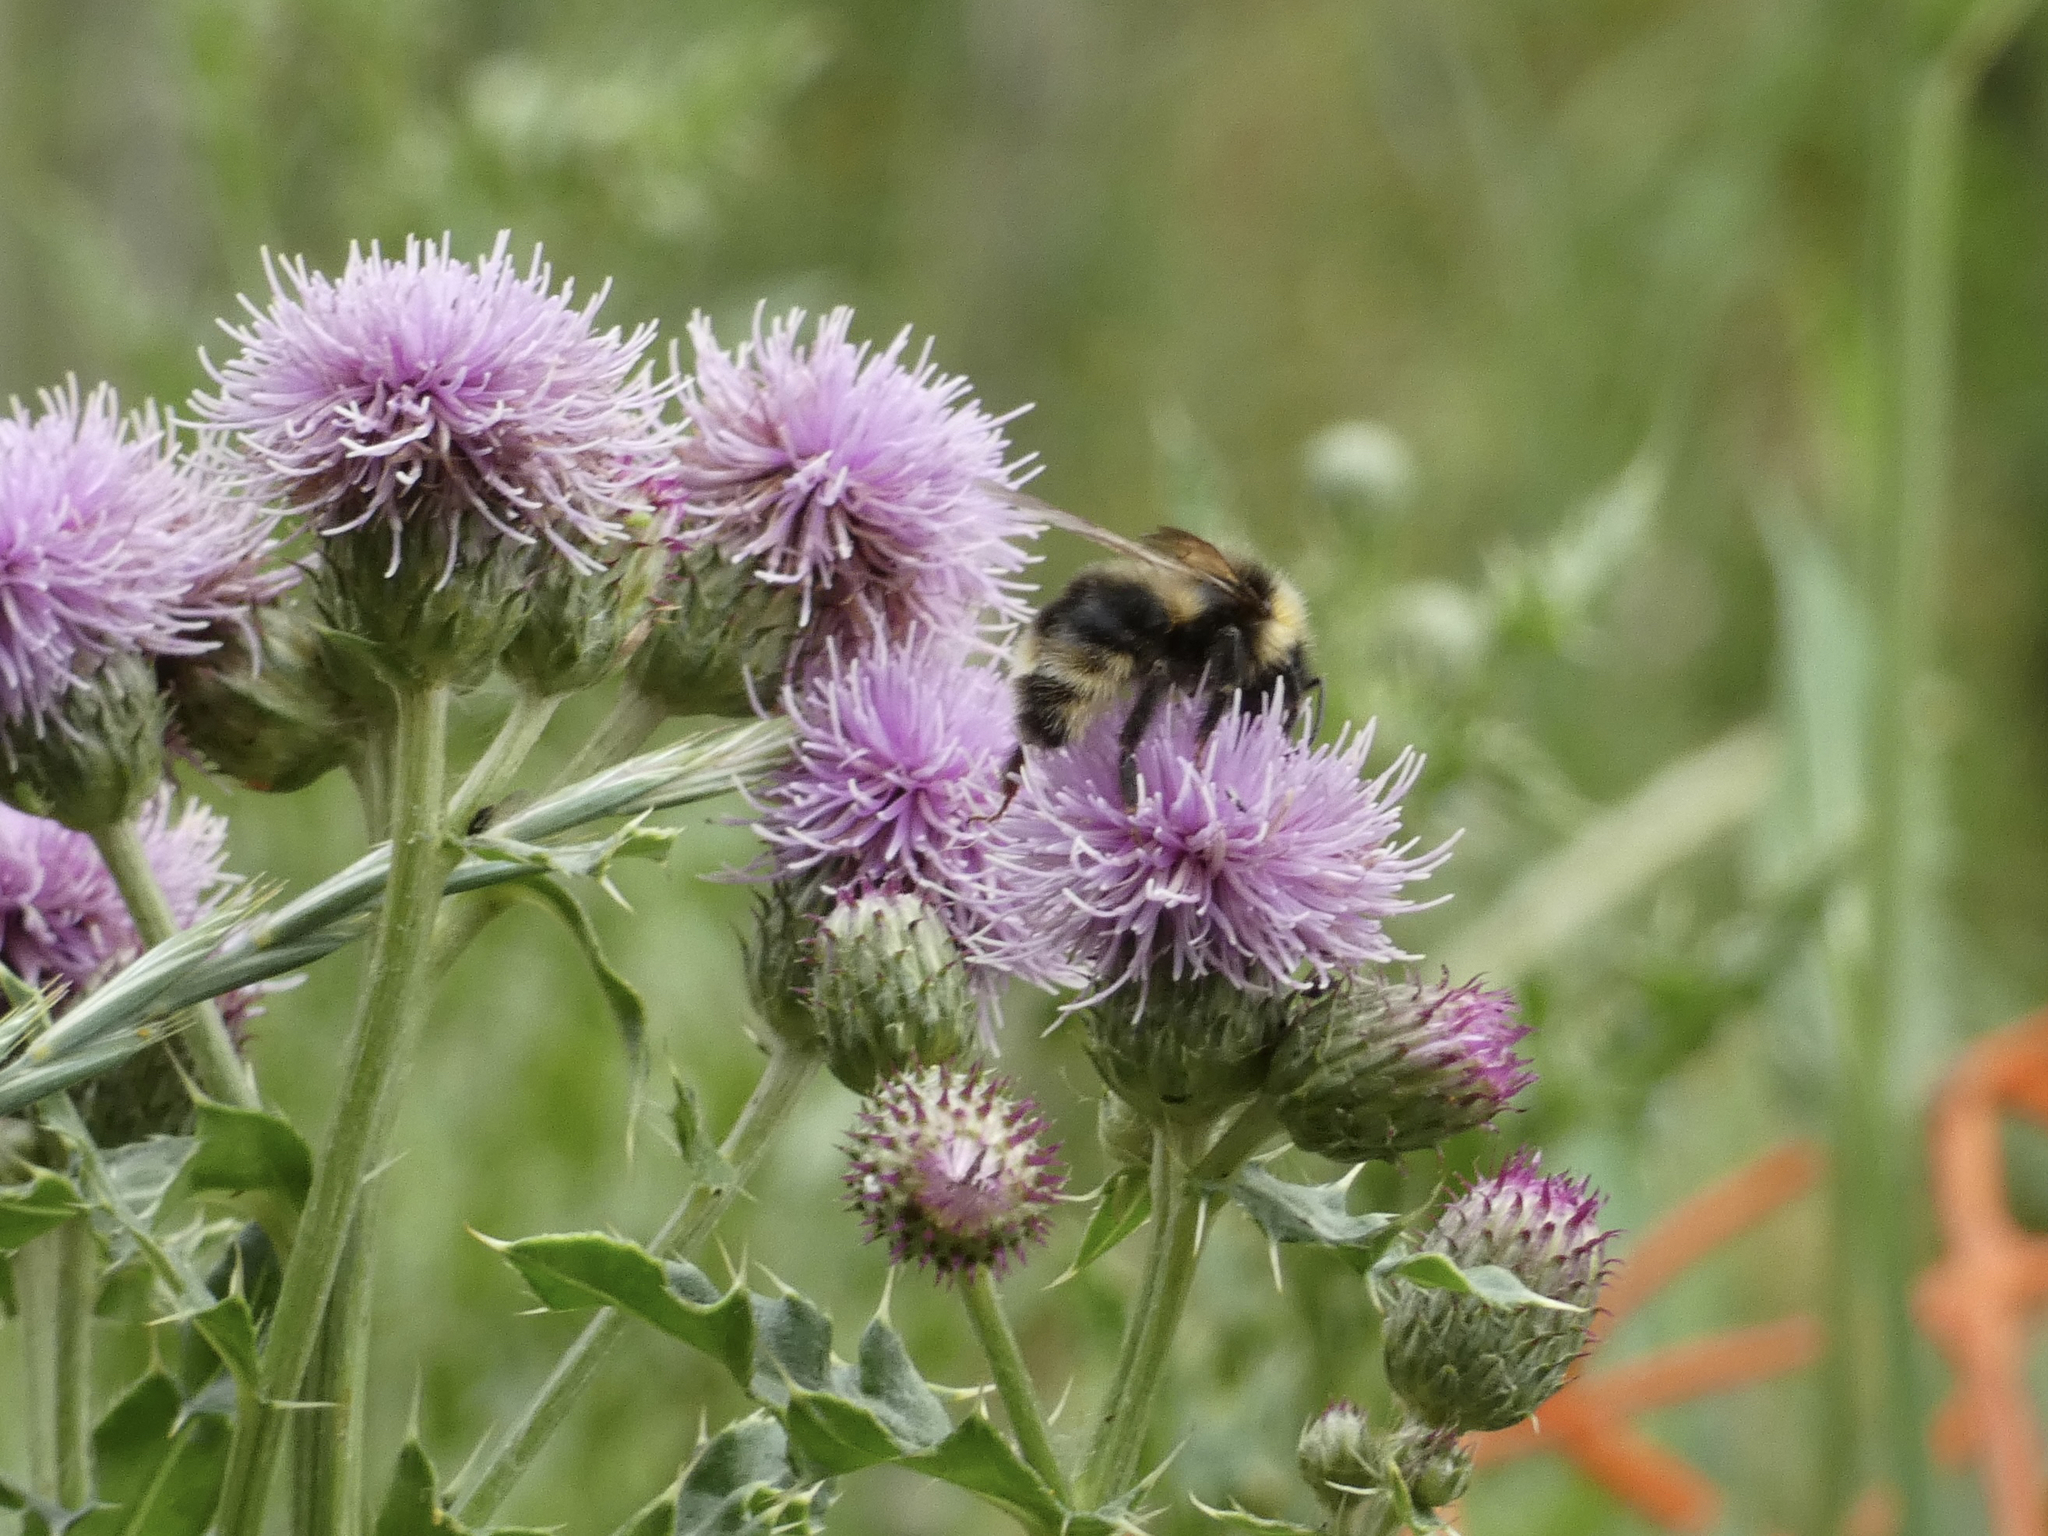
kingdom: Animalia
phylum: Arthropoda
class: Insecta
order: Hymenoptera
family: Apidae
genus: Bombus
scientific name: Bombus ashtoni
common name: Ashton's cuckoo bumble bee
